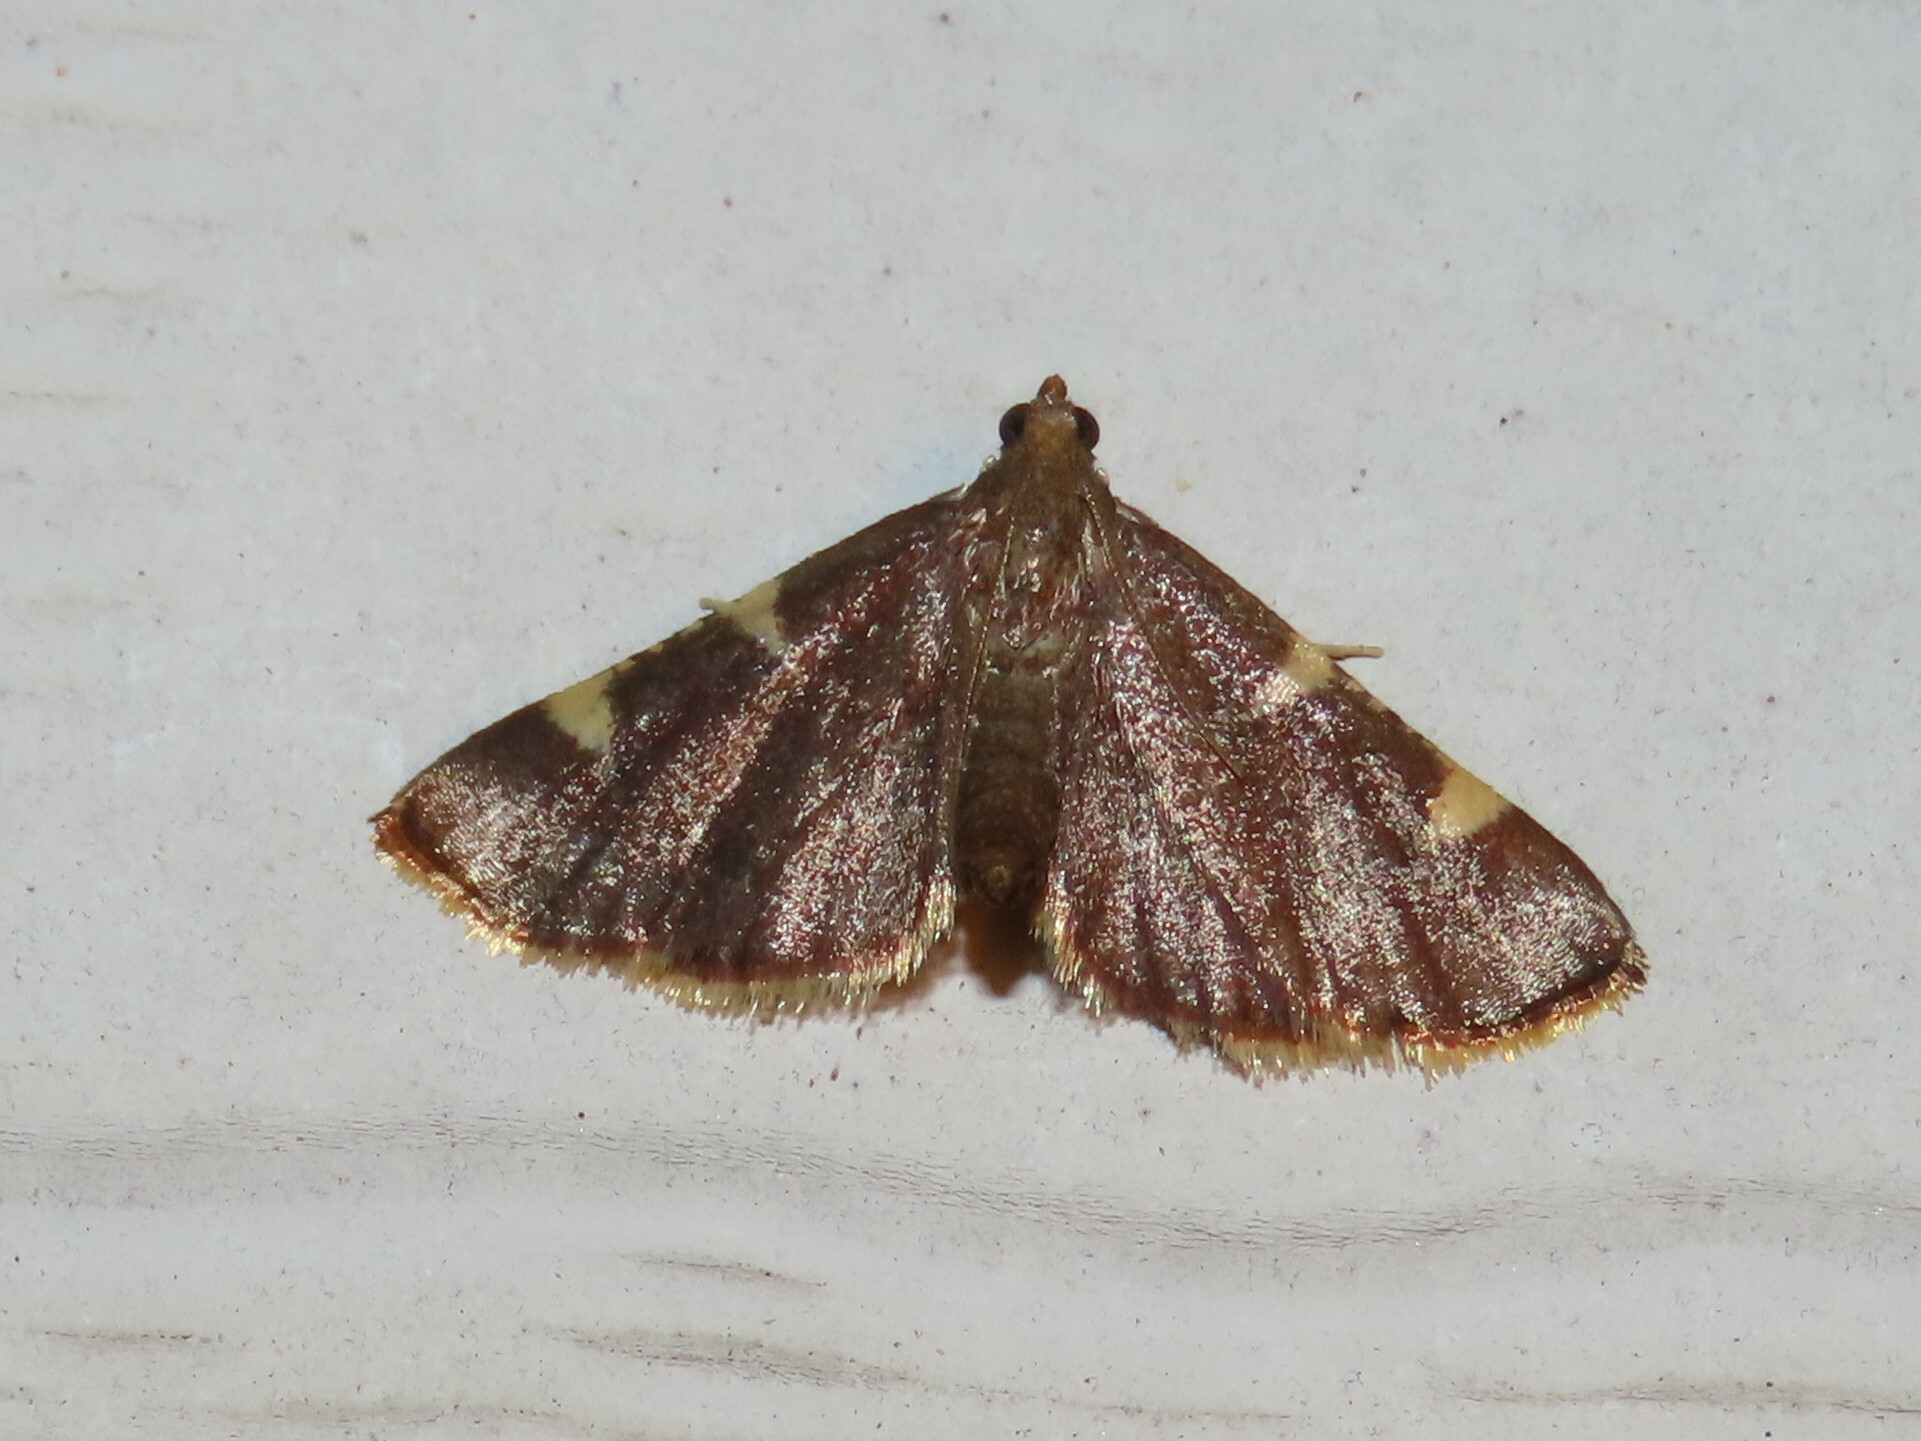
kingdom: Animalia
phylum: Arthropoda
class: Insecta
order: Lepidoptera
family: Pyralidae
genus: Hypsopygia
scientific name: Hypsopygia olinalis
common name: Yellow-fringed dolichomia moth
